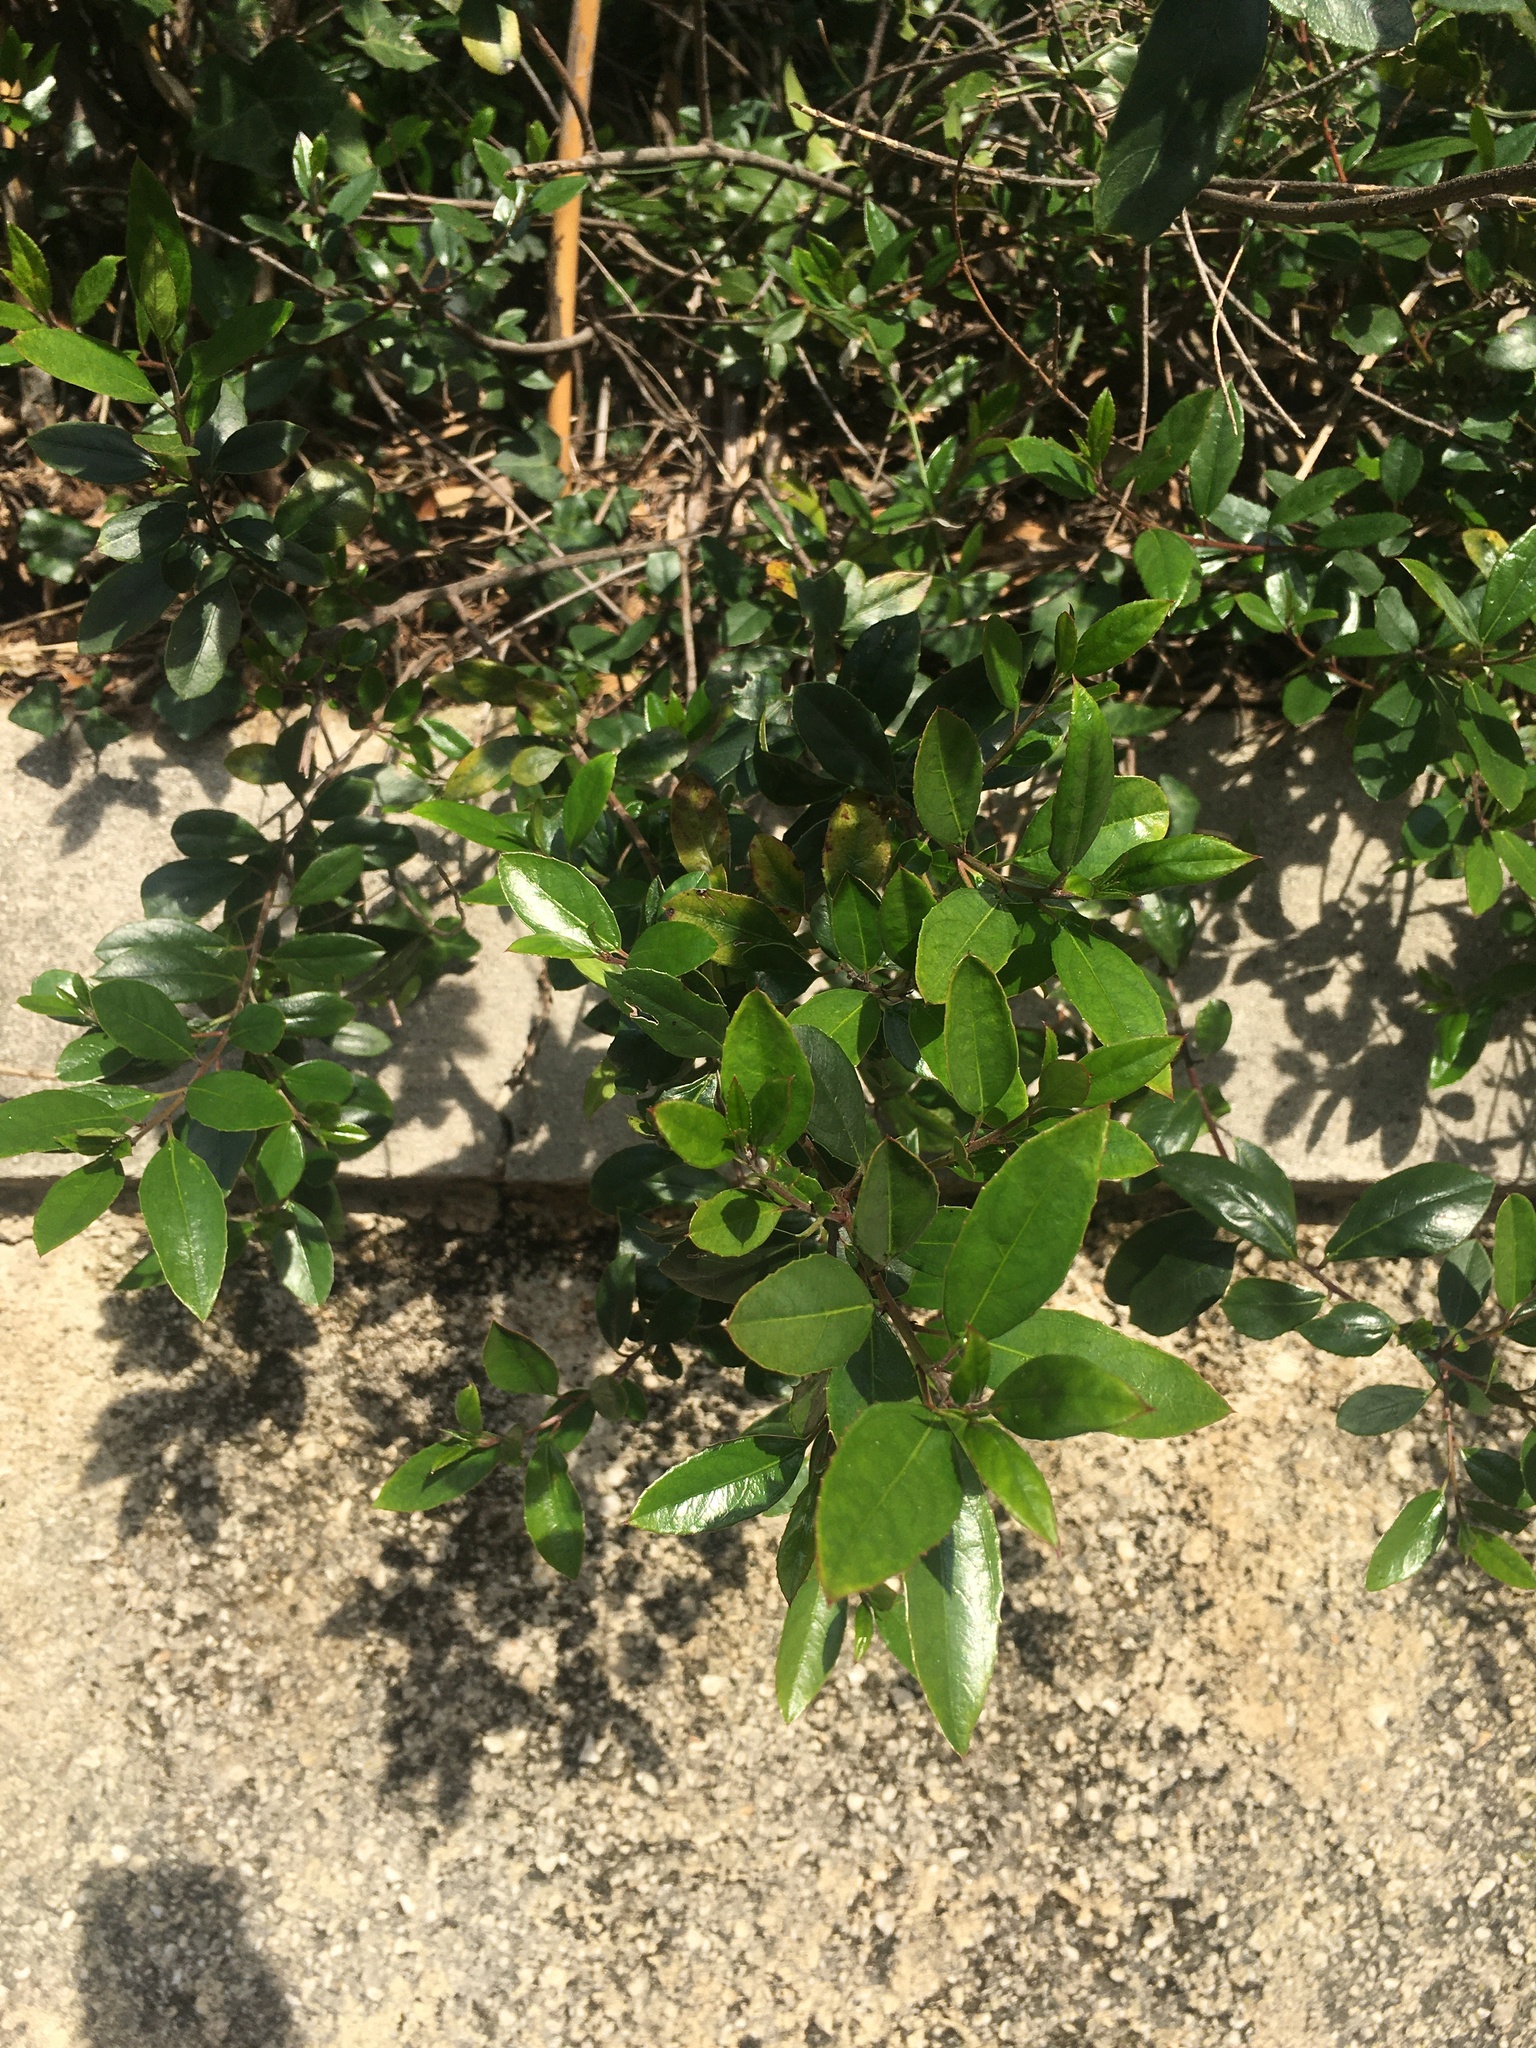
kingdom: Plantae
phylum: Tracheophyta
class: Magnoliopsida
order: Rosales
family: Rhamnaceae
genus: Rhamnus
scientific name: Rhamnus alaternus
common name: Mediterranean buckthorn
